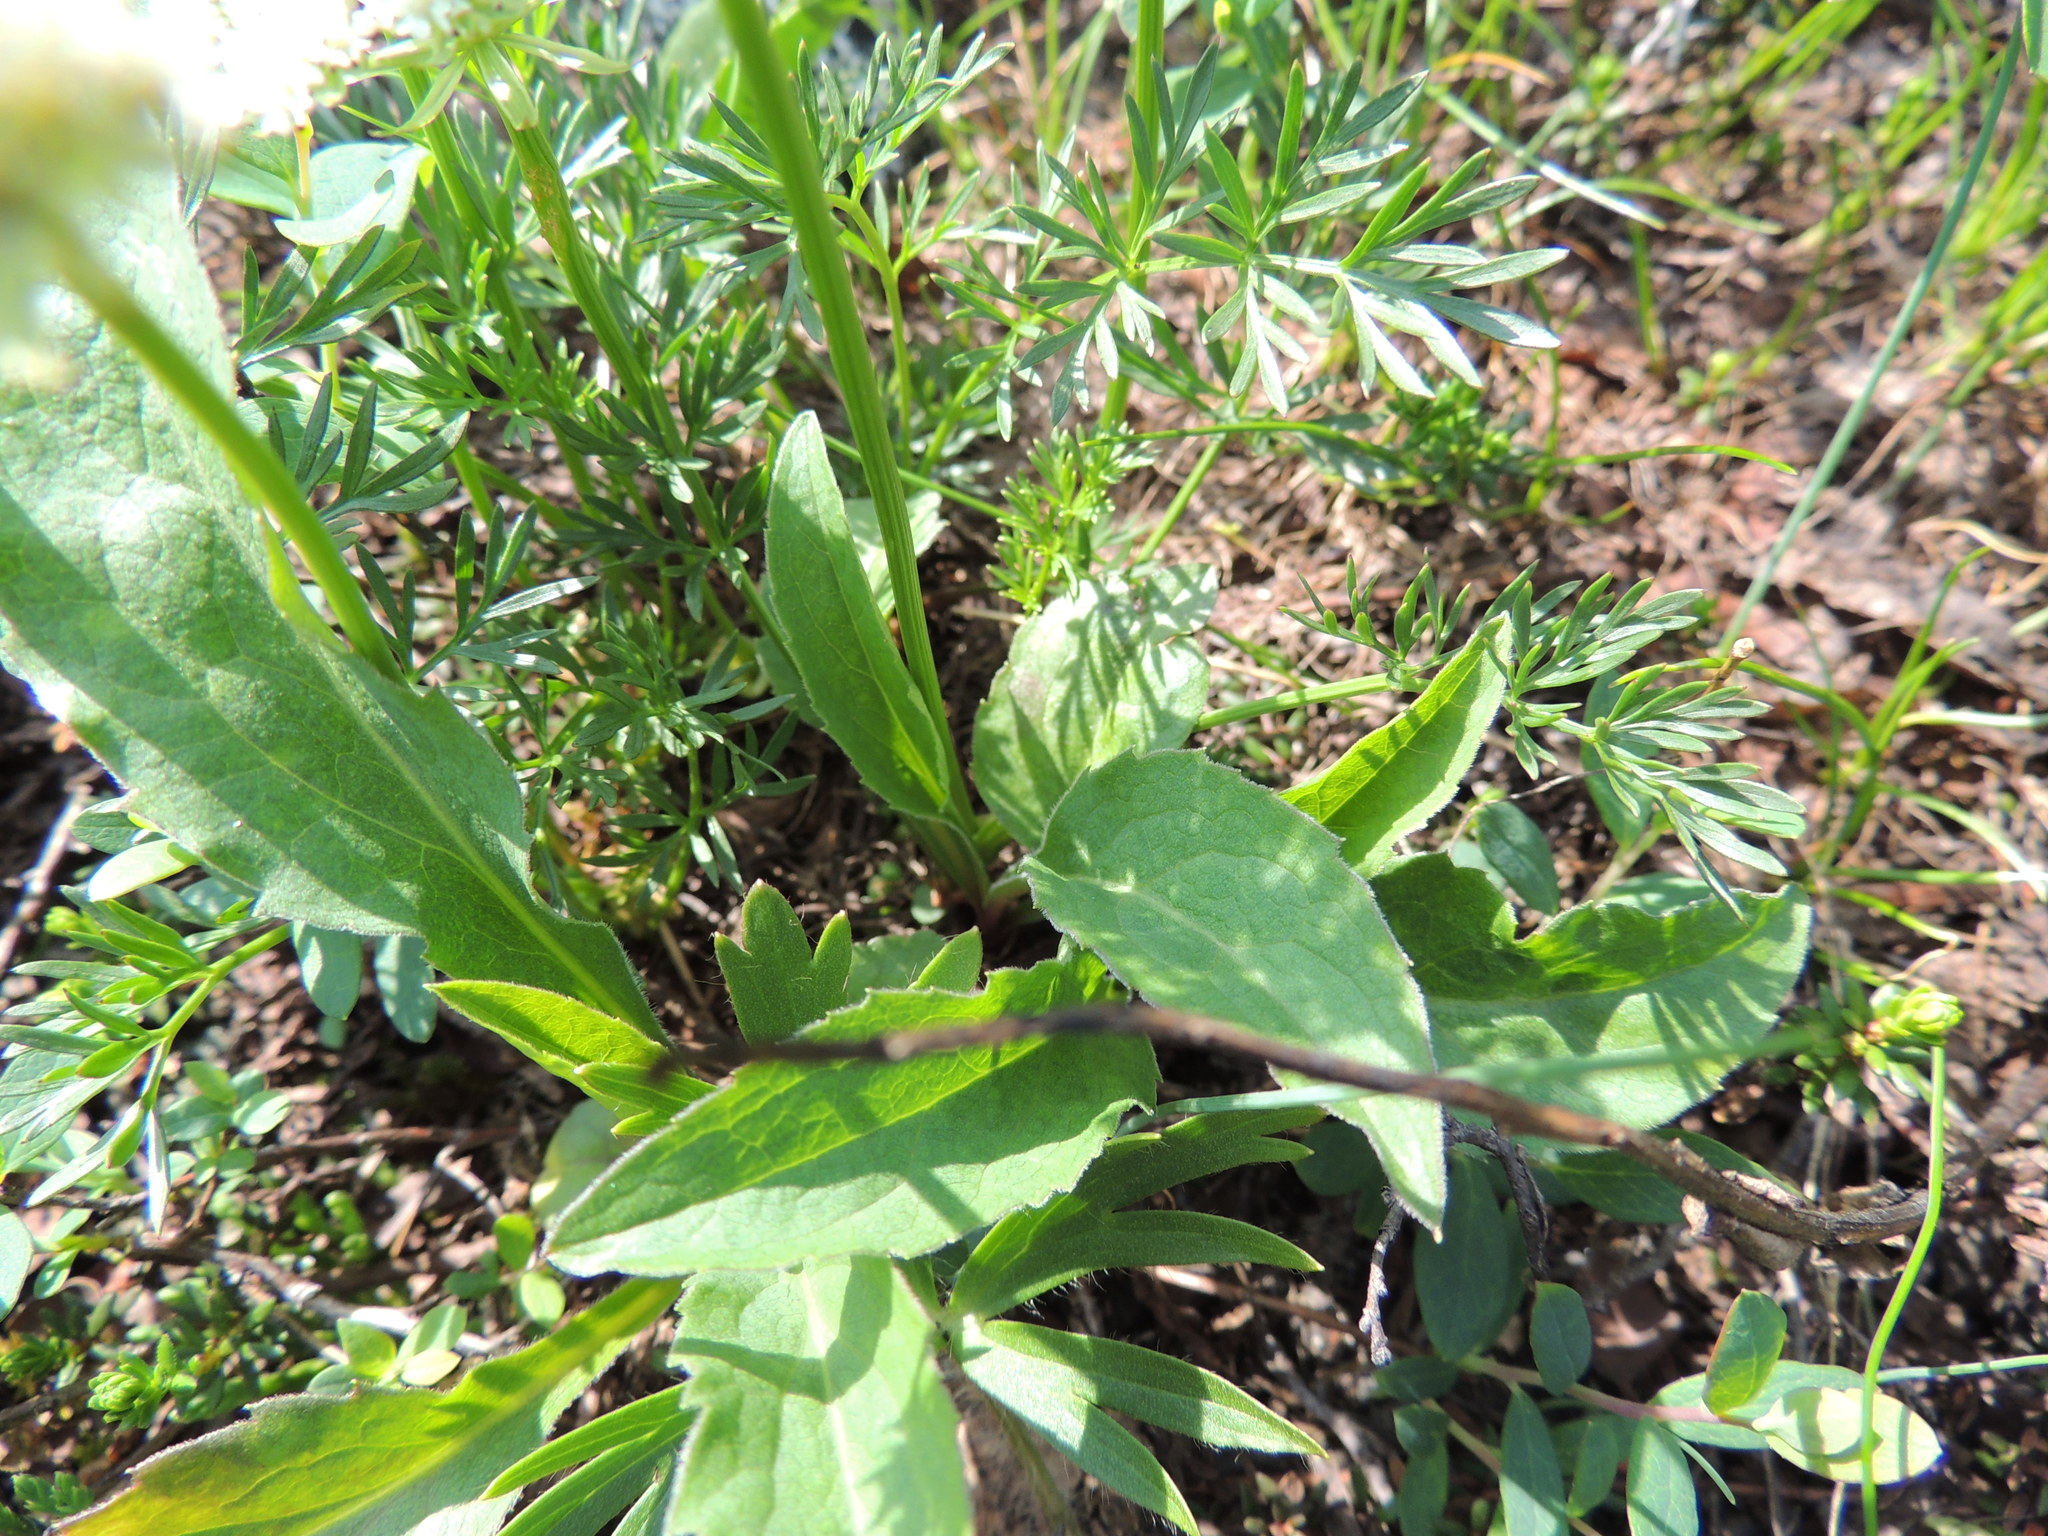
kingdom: Plantae
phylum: Tracheophyta
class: Magnoliopsida
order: Apiales
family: Apiaceae
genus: Pachypleurum
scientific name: Pachypleurum mutellinoides
